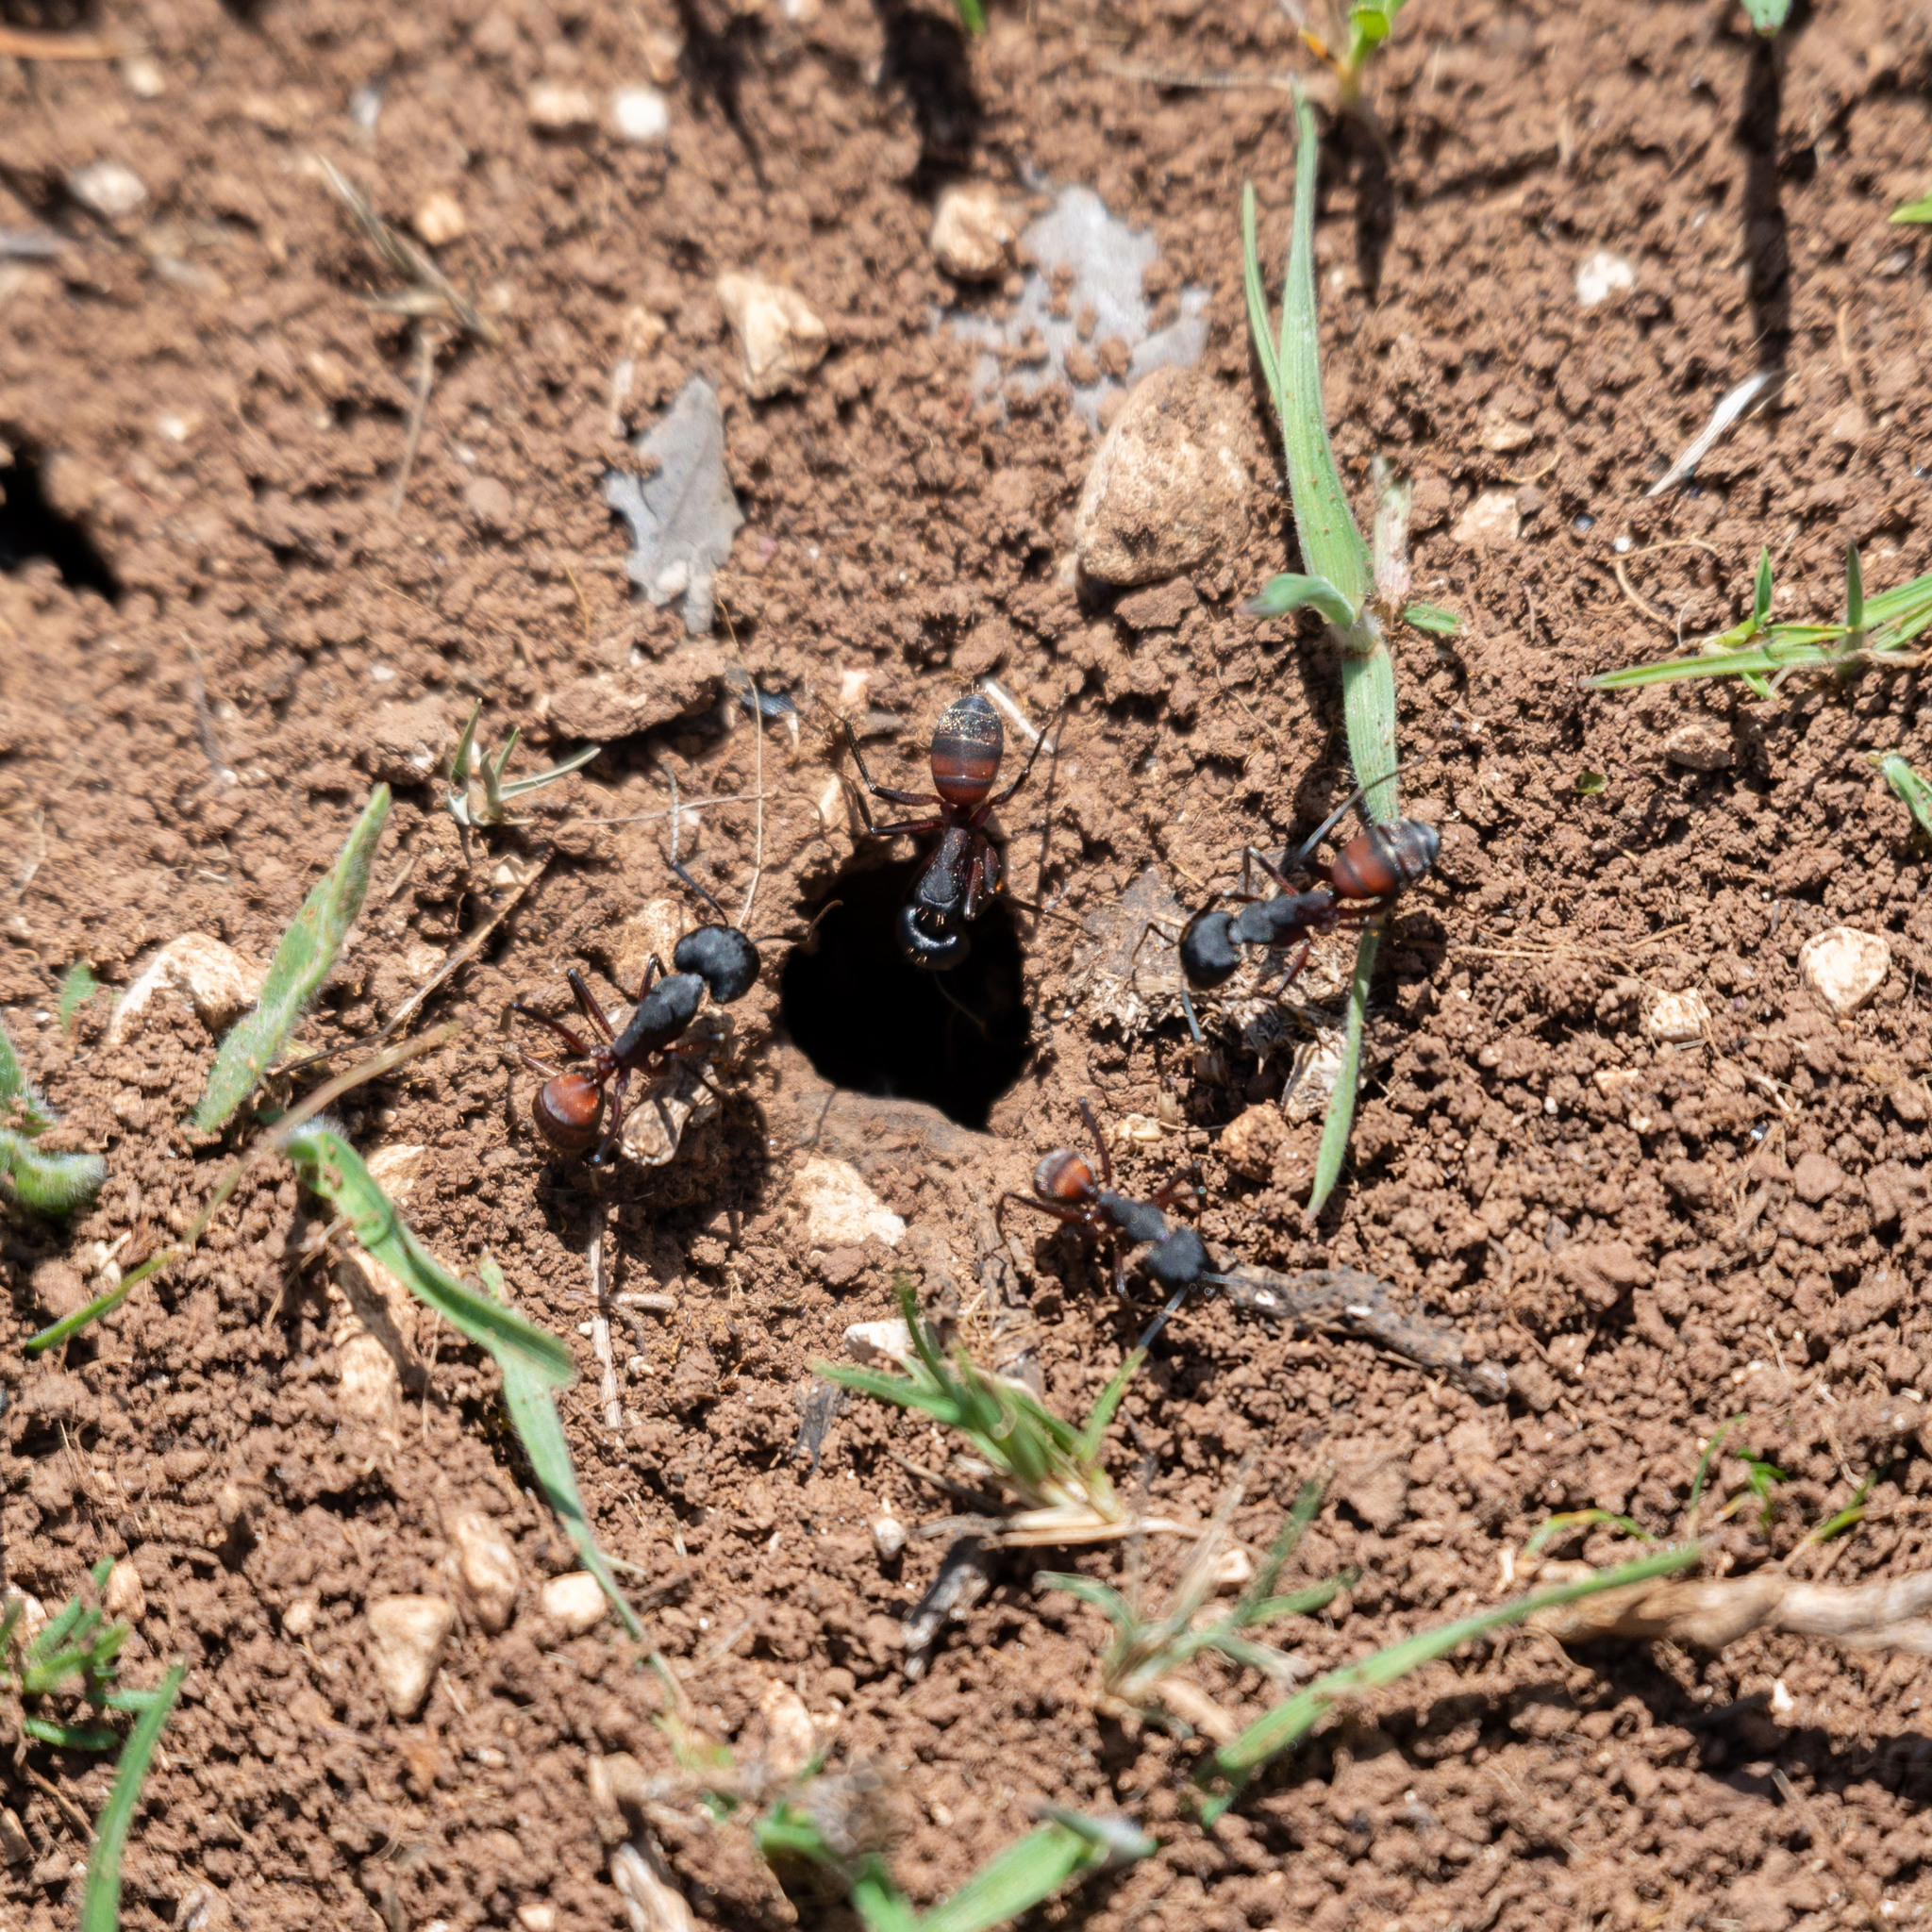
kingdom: Animalia
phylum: Arthropoda
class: Insecta
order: Hymenoptera
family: Formicidae
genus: Camponotus
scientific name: Camponotus cruentatus
